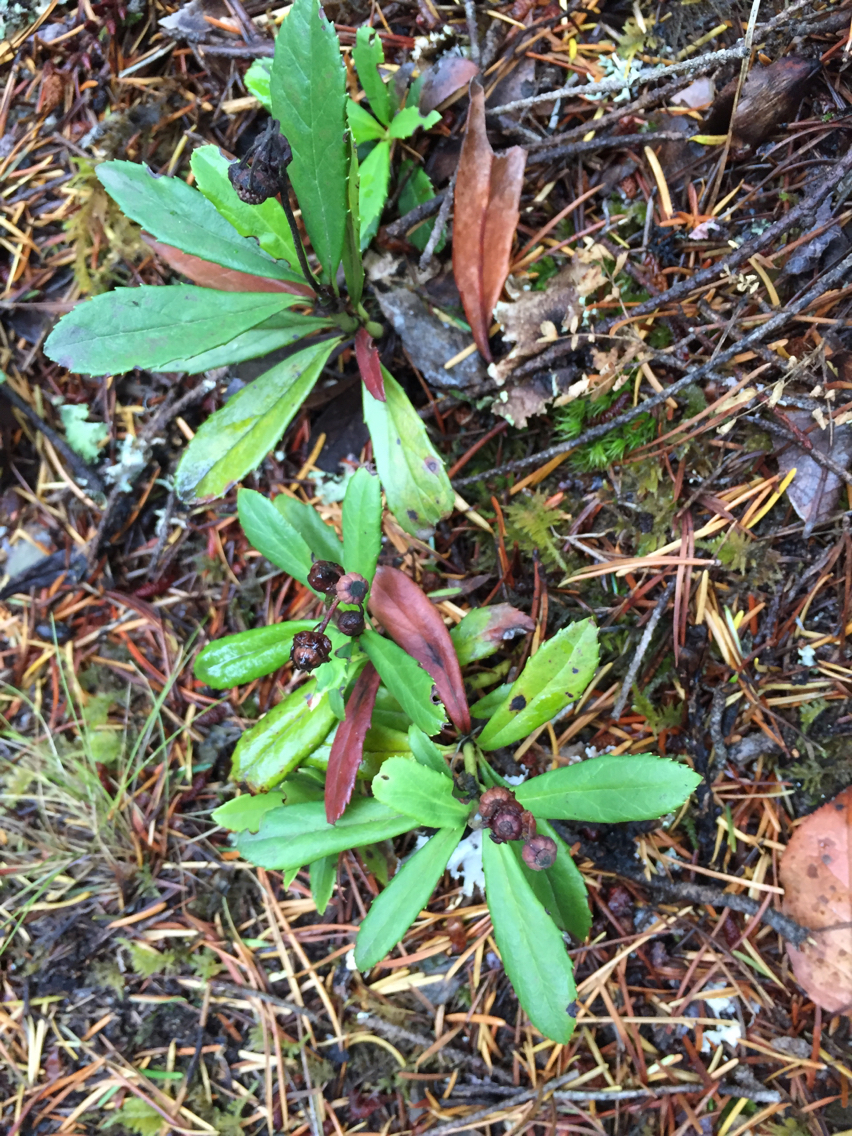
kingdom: Plantae
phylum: Tracheophyta
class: Magnoliopsida
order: Ericales
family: Ericaceae
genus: Chimaphila
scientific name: Chimaphila umbellata
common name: Pipsissewa
